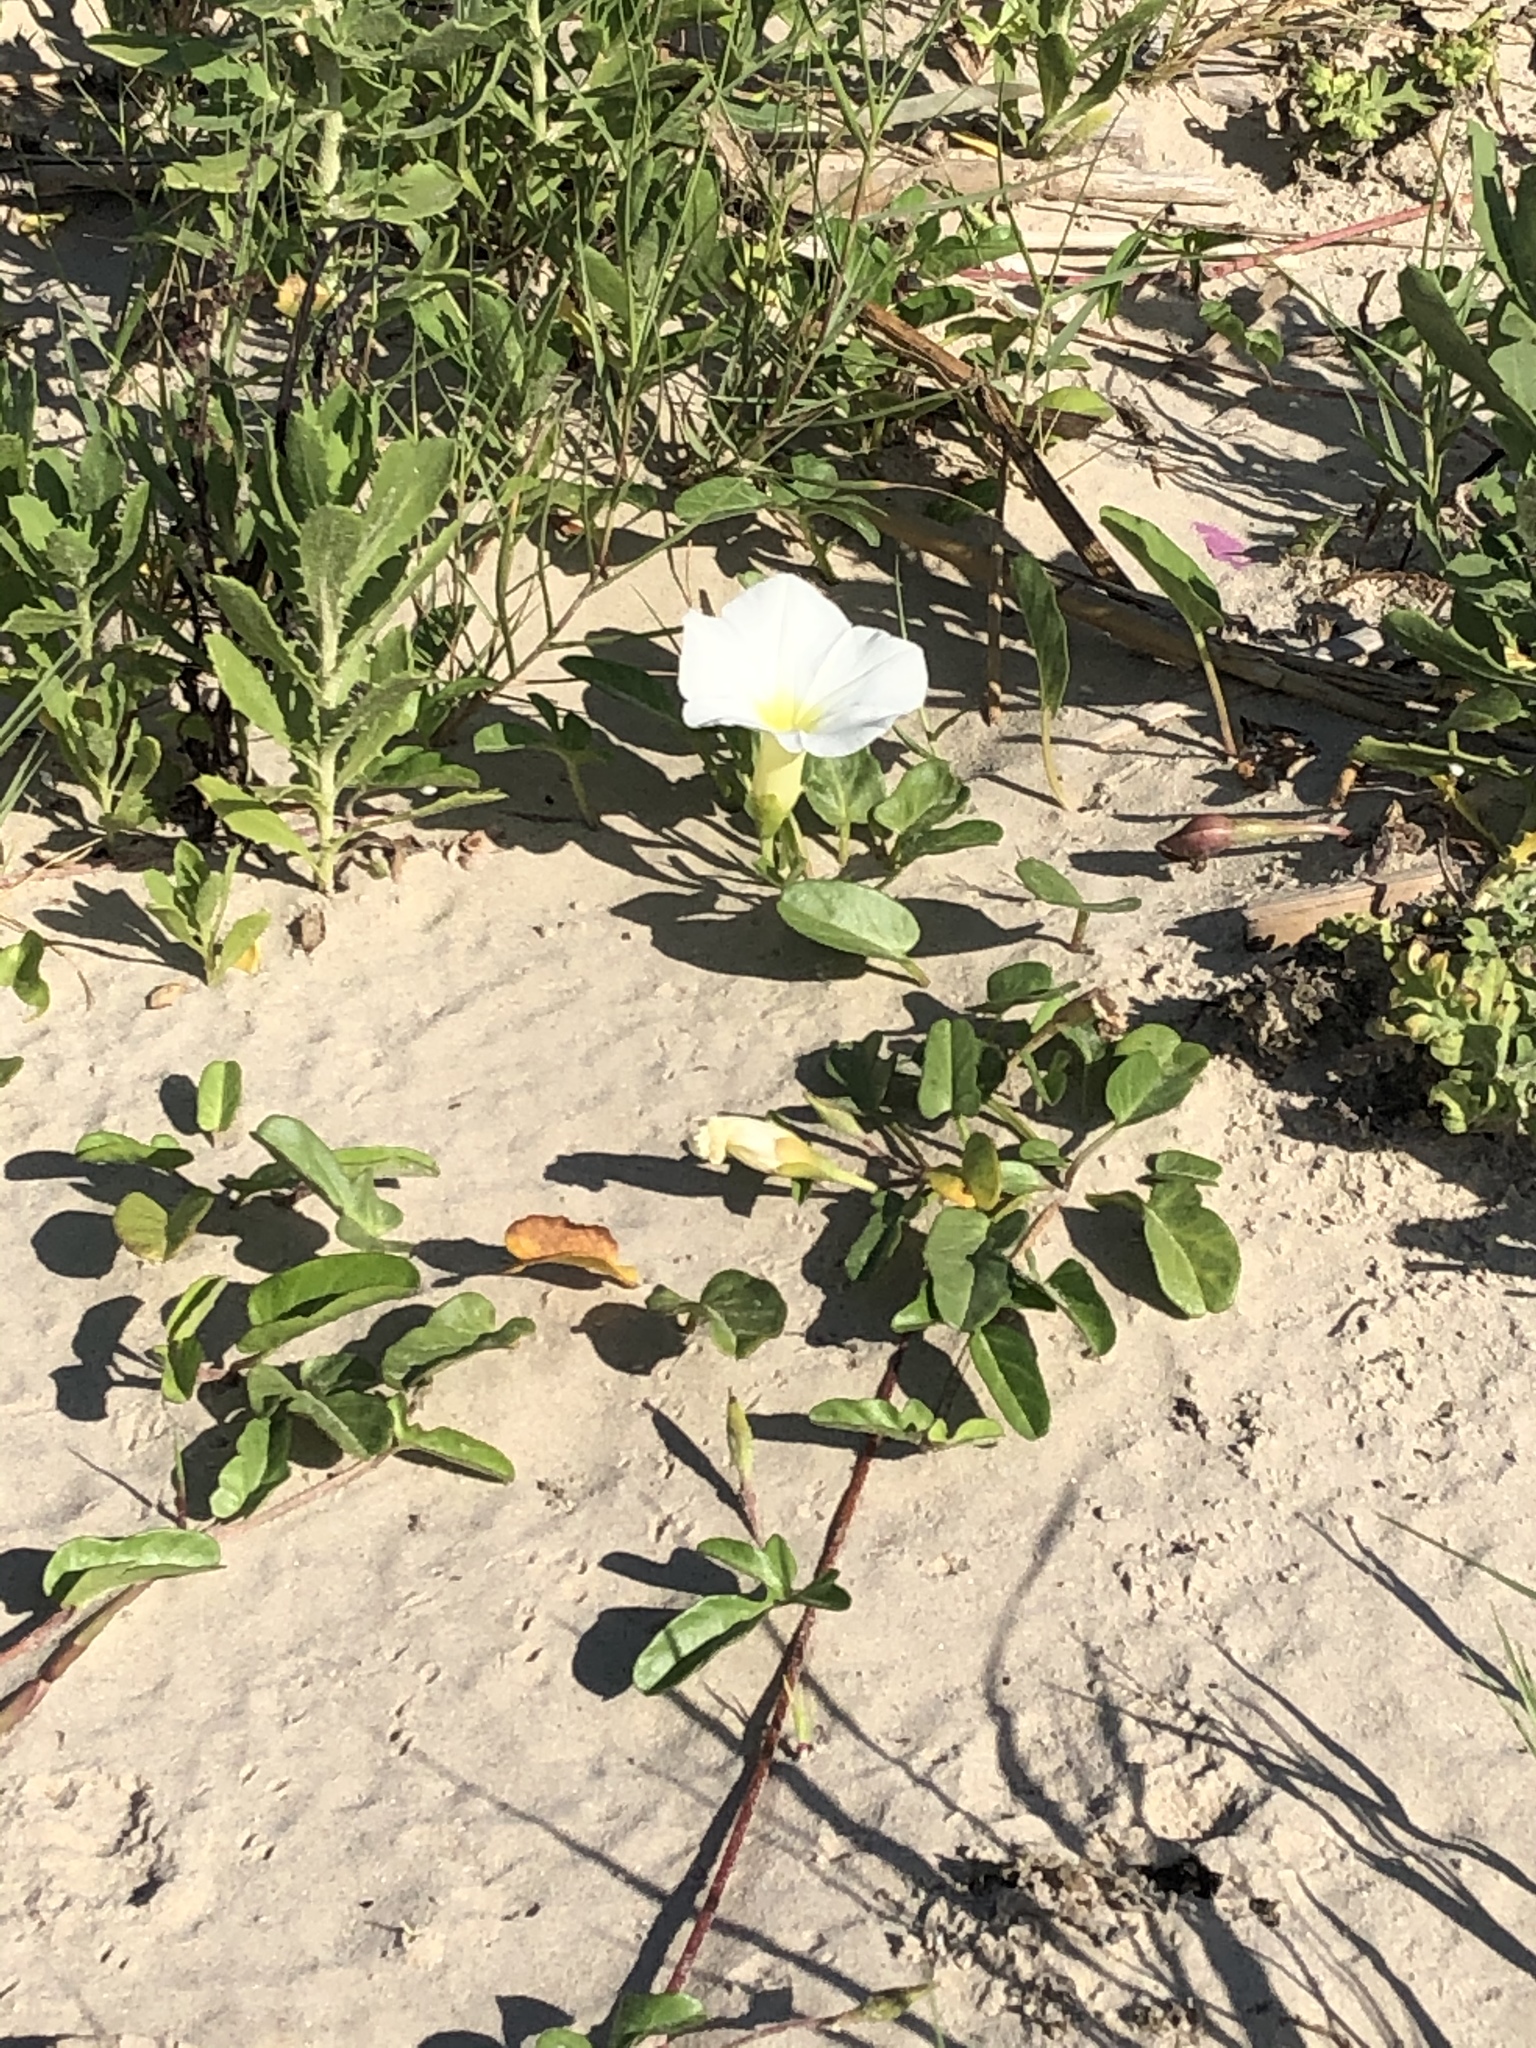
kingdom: Plantae
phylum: Tracheophyta
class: Magnoliopsida
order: Solanales
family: Convolvulaceae
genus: Ipomoea
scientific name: Ipomoea imperati
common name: Fiddle-leaf morning-glory
